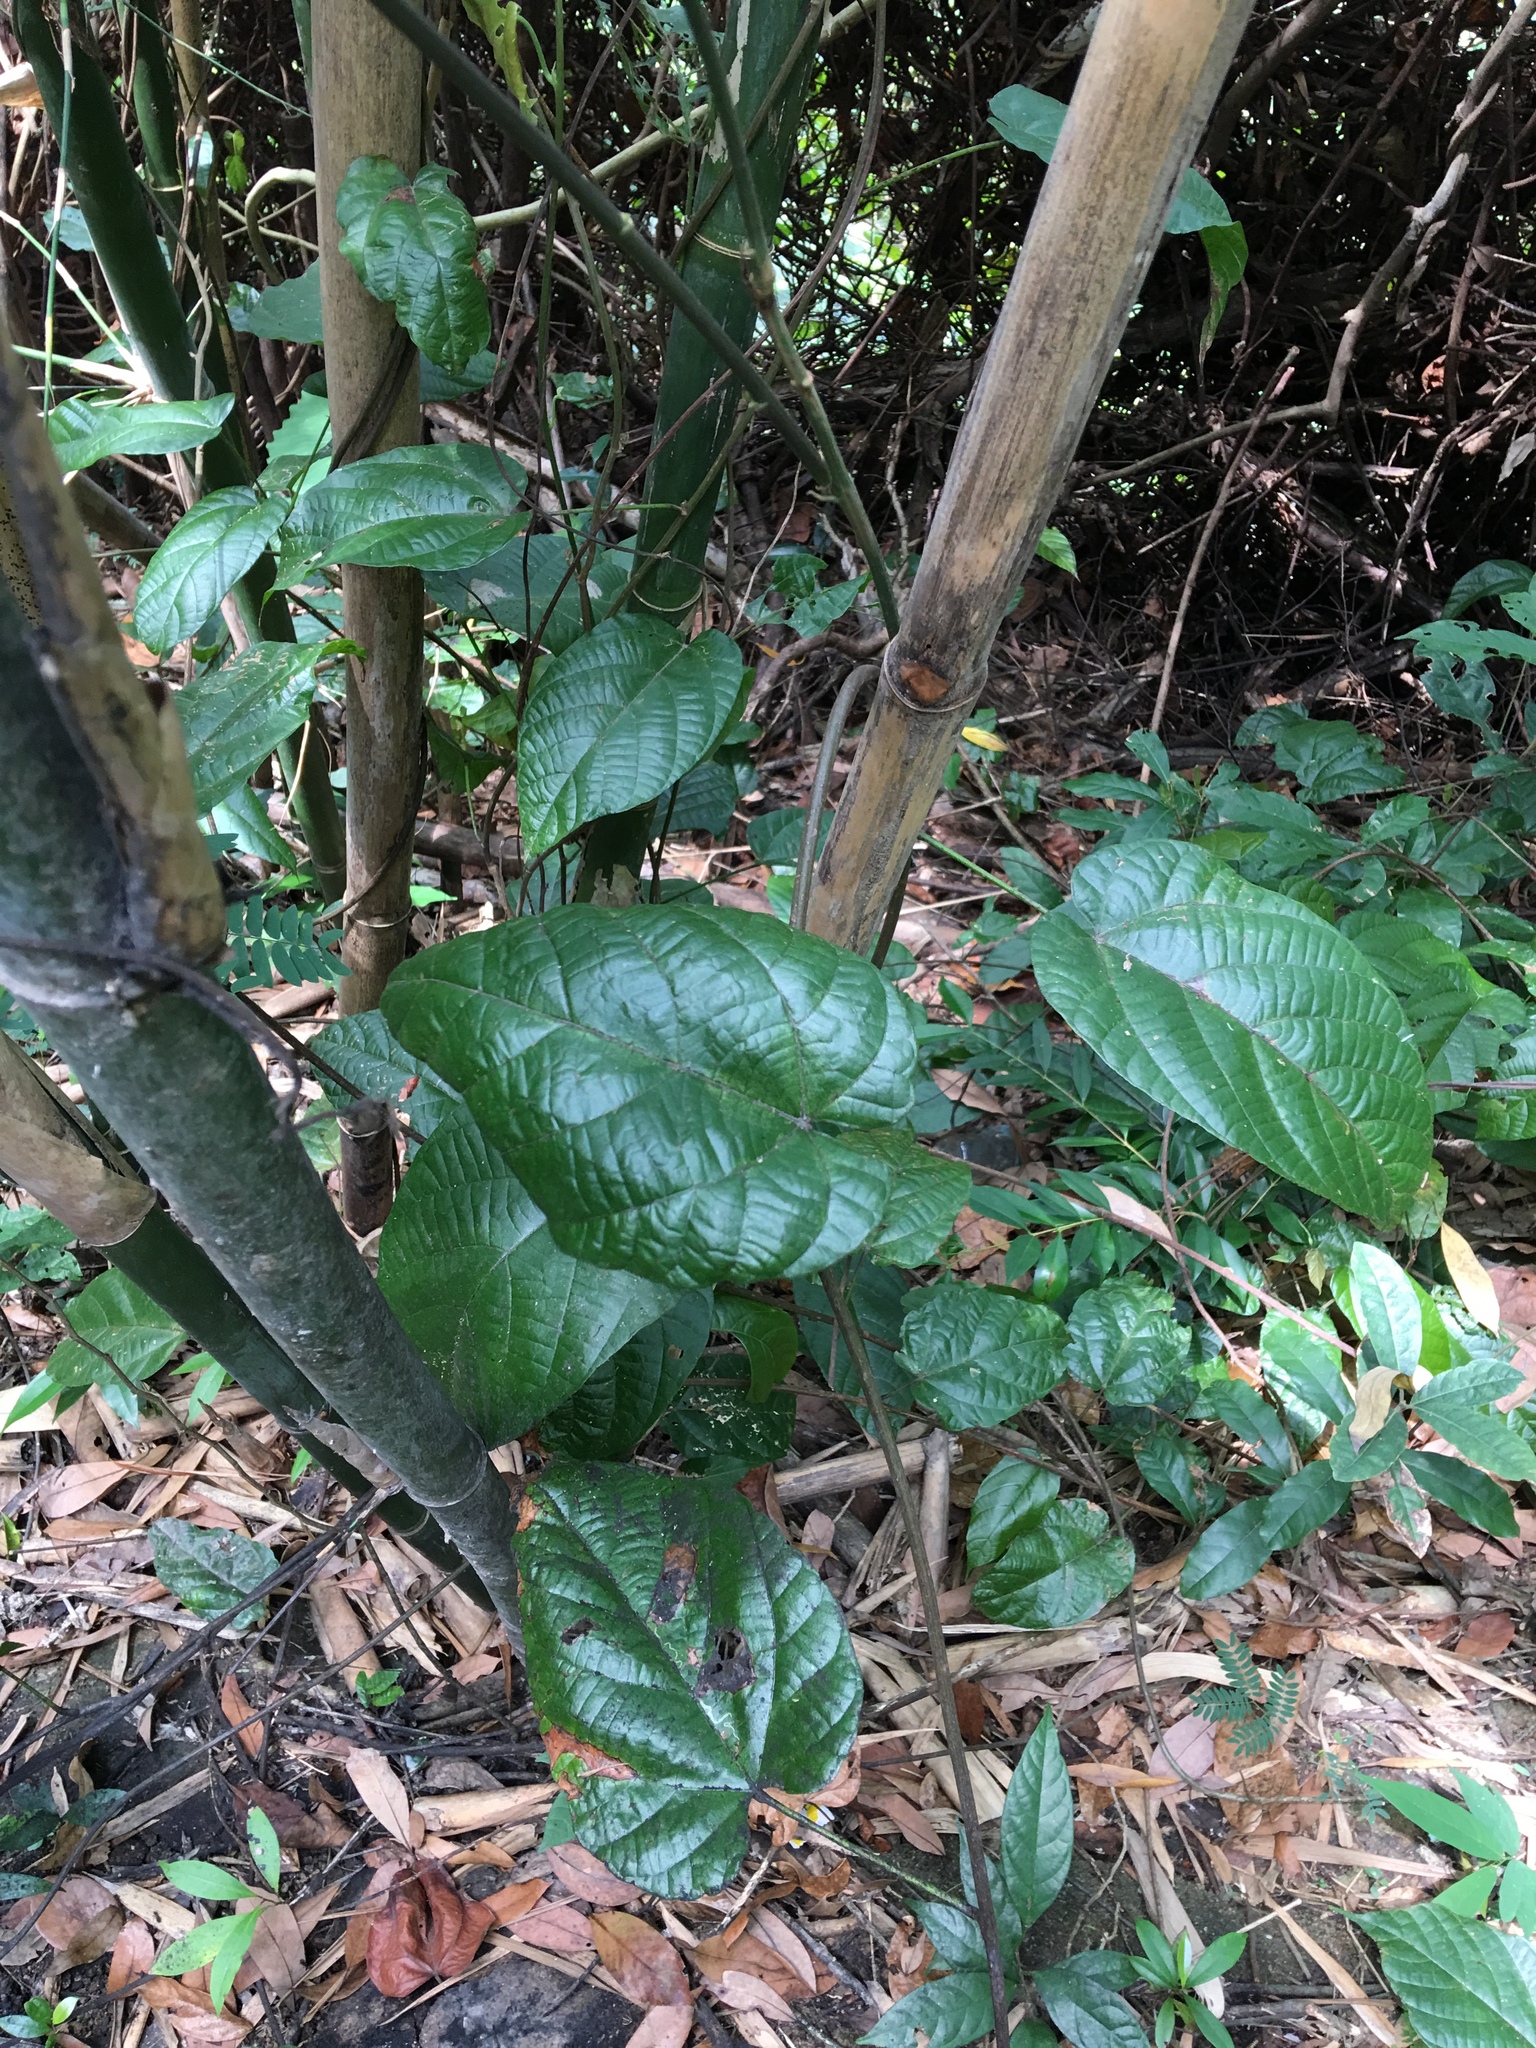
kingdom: Plantae
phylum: Tracheophyta
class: Liliopsida
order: Dioscoreales
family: Dioscoreaceae
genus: Dioscorea
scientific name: Dioscorea bulbifera
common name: Air yam
